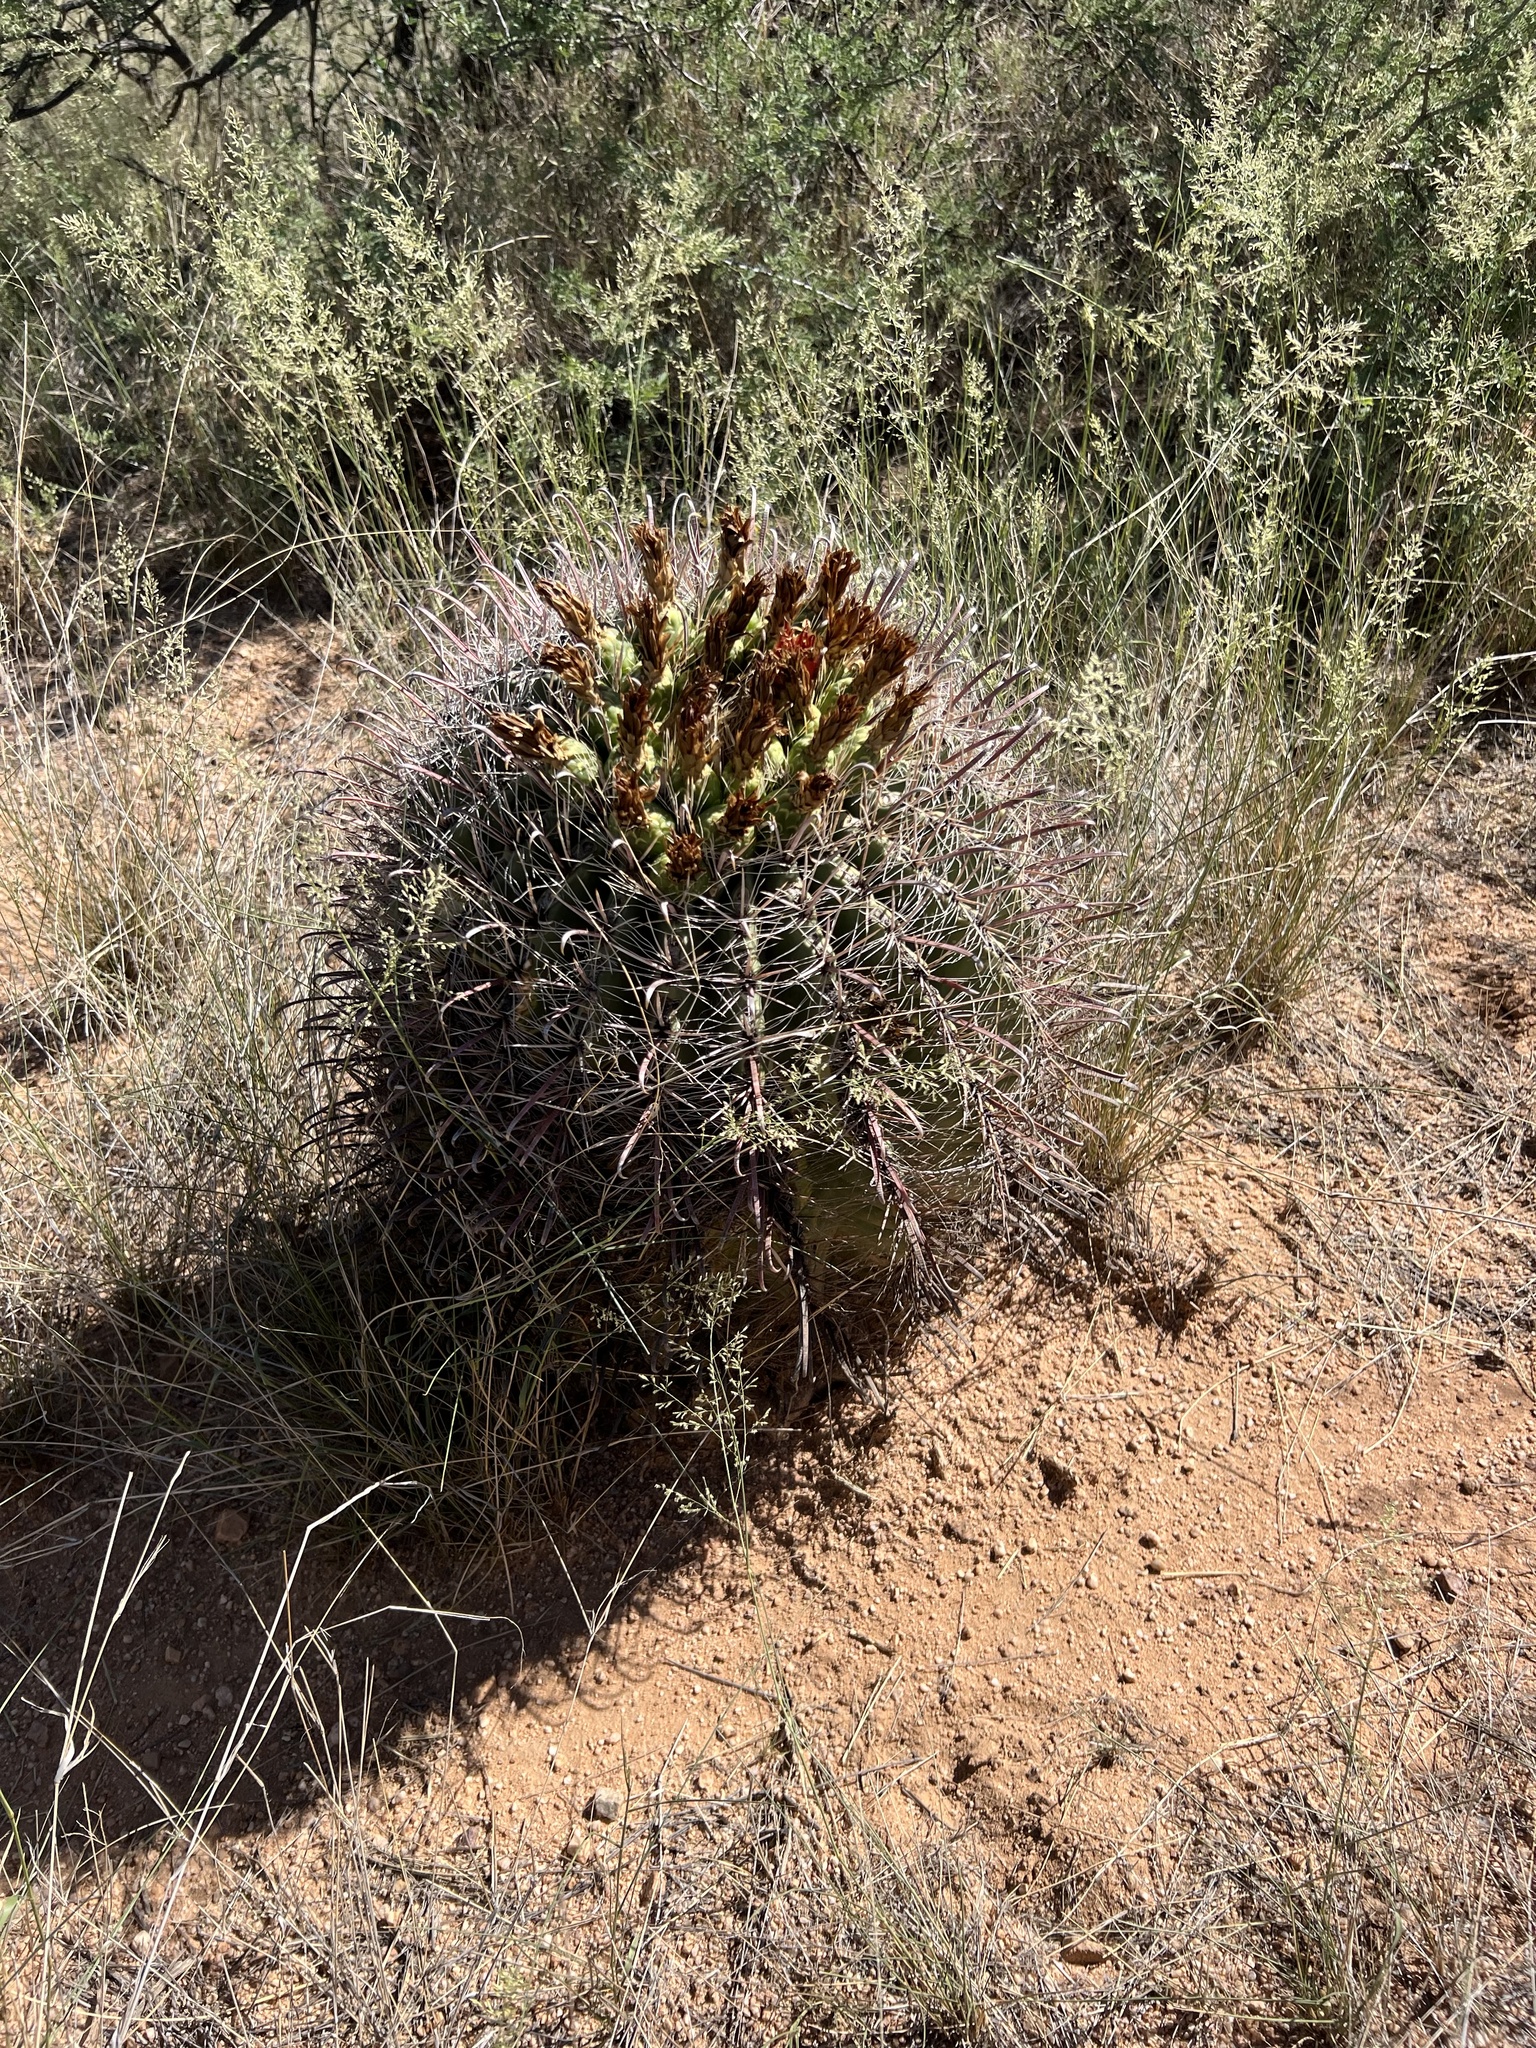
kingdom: Plantae
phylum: Tracheophyta
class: Magnoliopsida
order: Caryophyllales
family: Cactaceae
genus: Ferocactus
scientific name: Ferocactus wislizeni
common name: Candy barrel cactus
